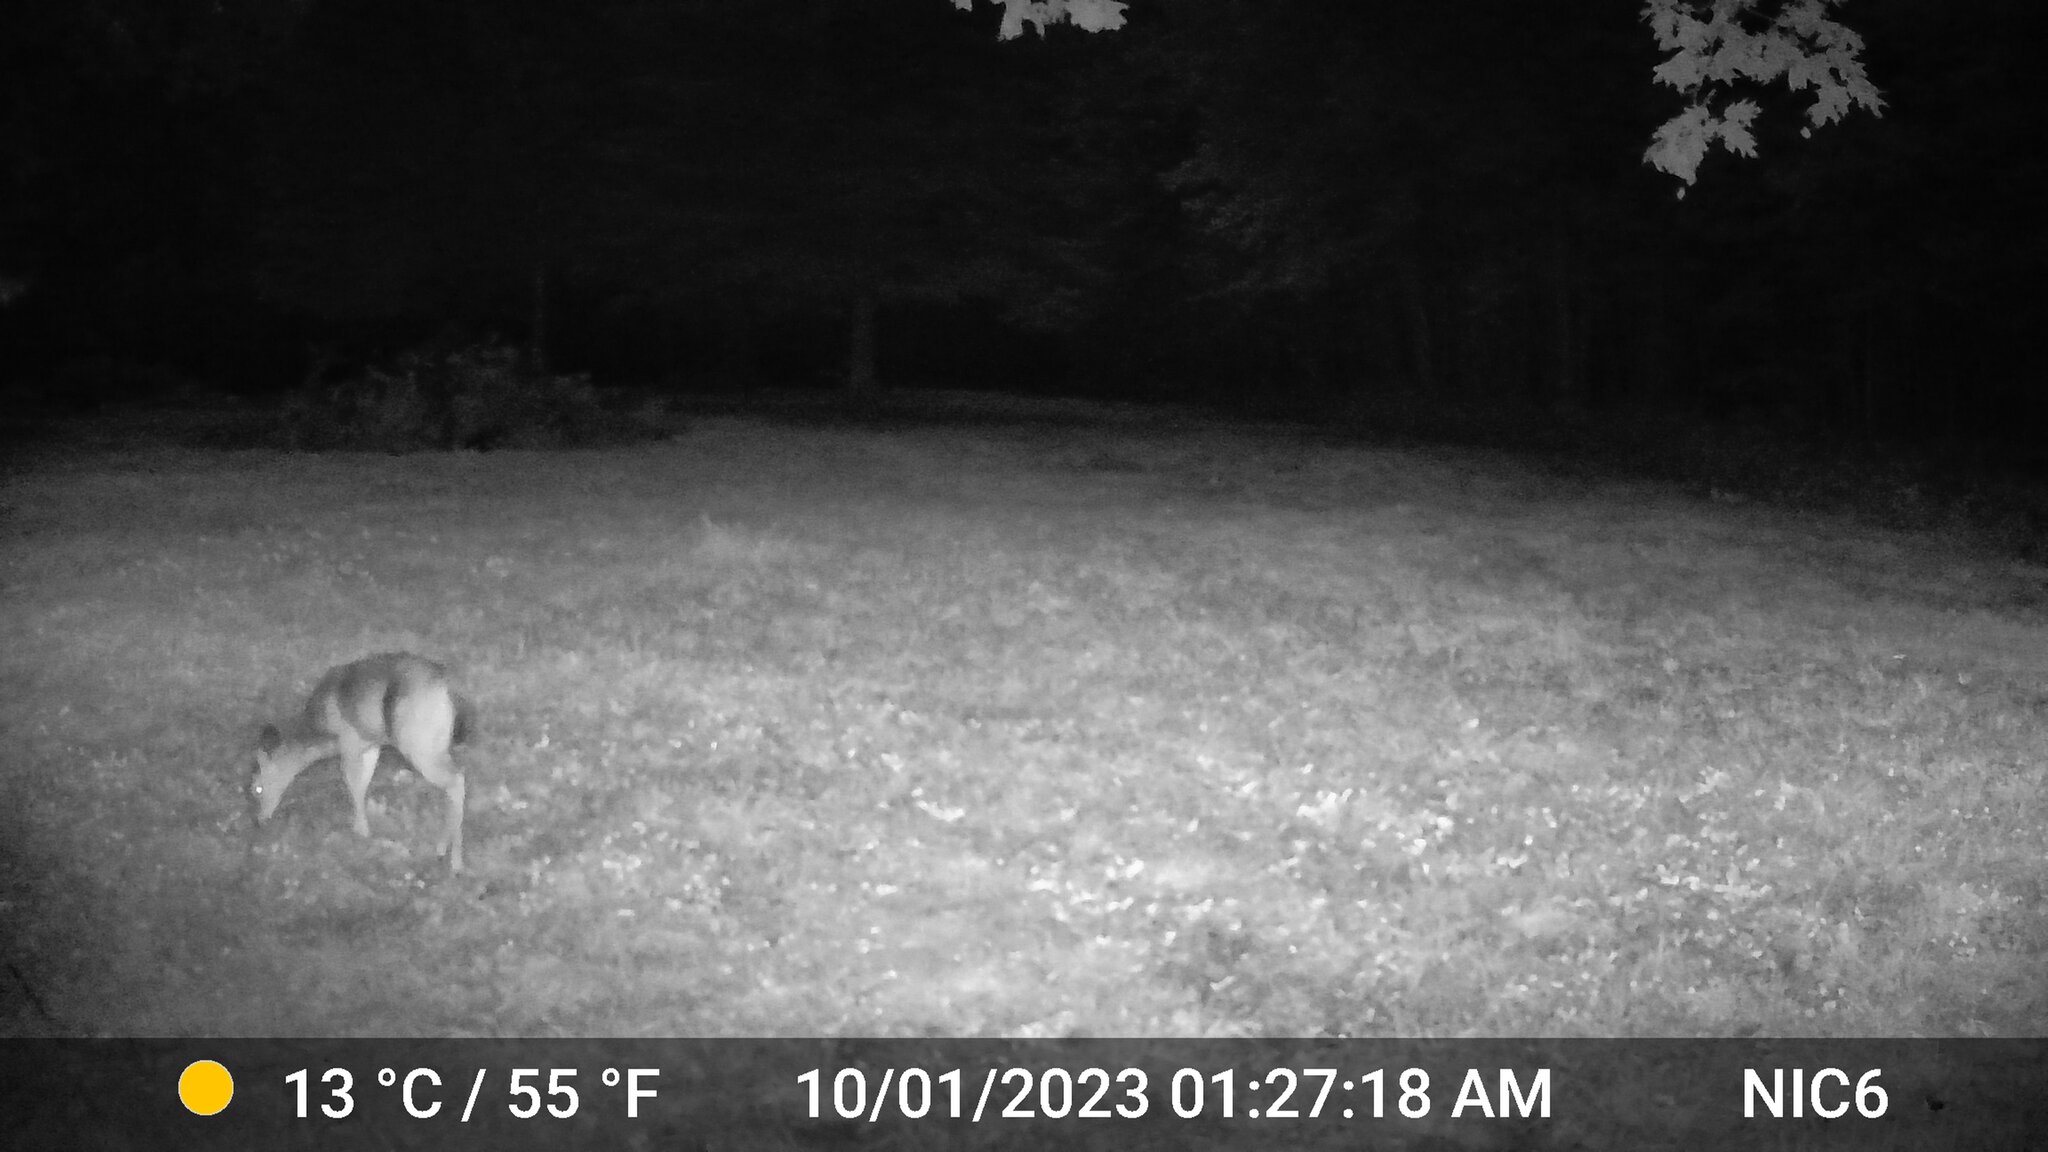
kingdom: Animalia
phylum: Chordata
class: Mammalia
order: Artiodactyla
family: Cervidae
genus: Odocoileus
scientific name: Odocoileus virginianus
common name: White-tailed deer
